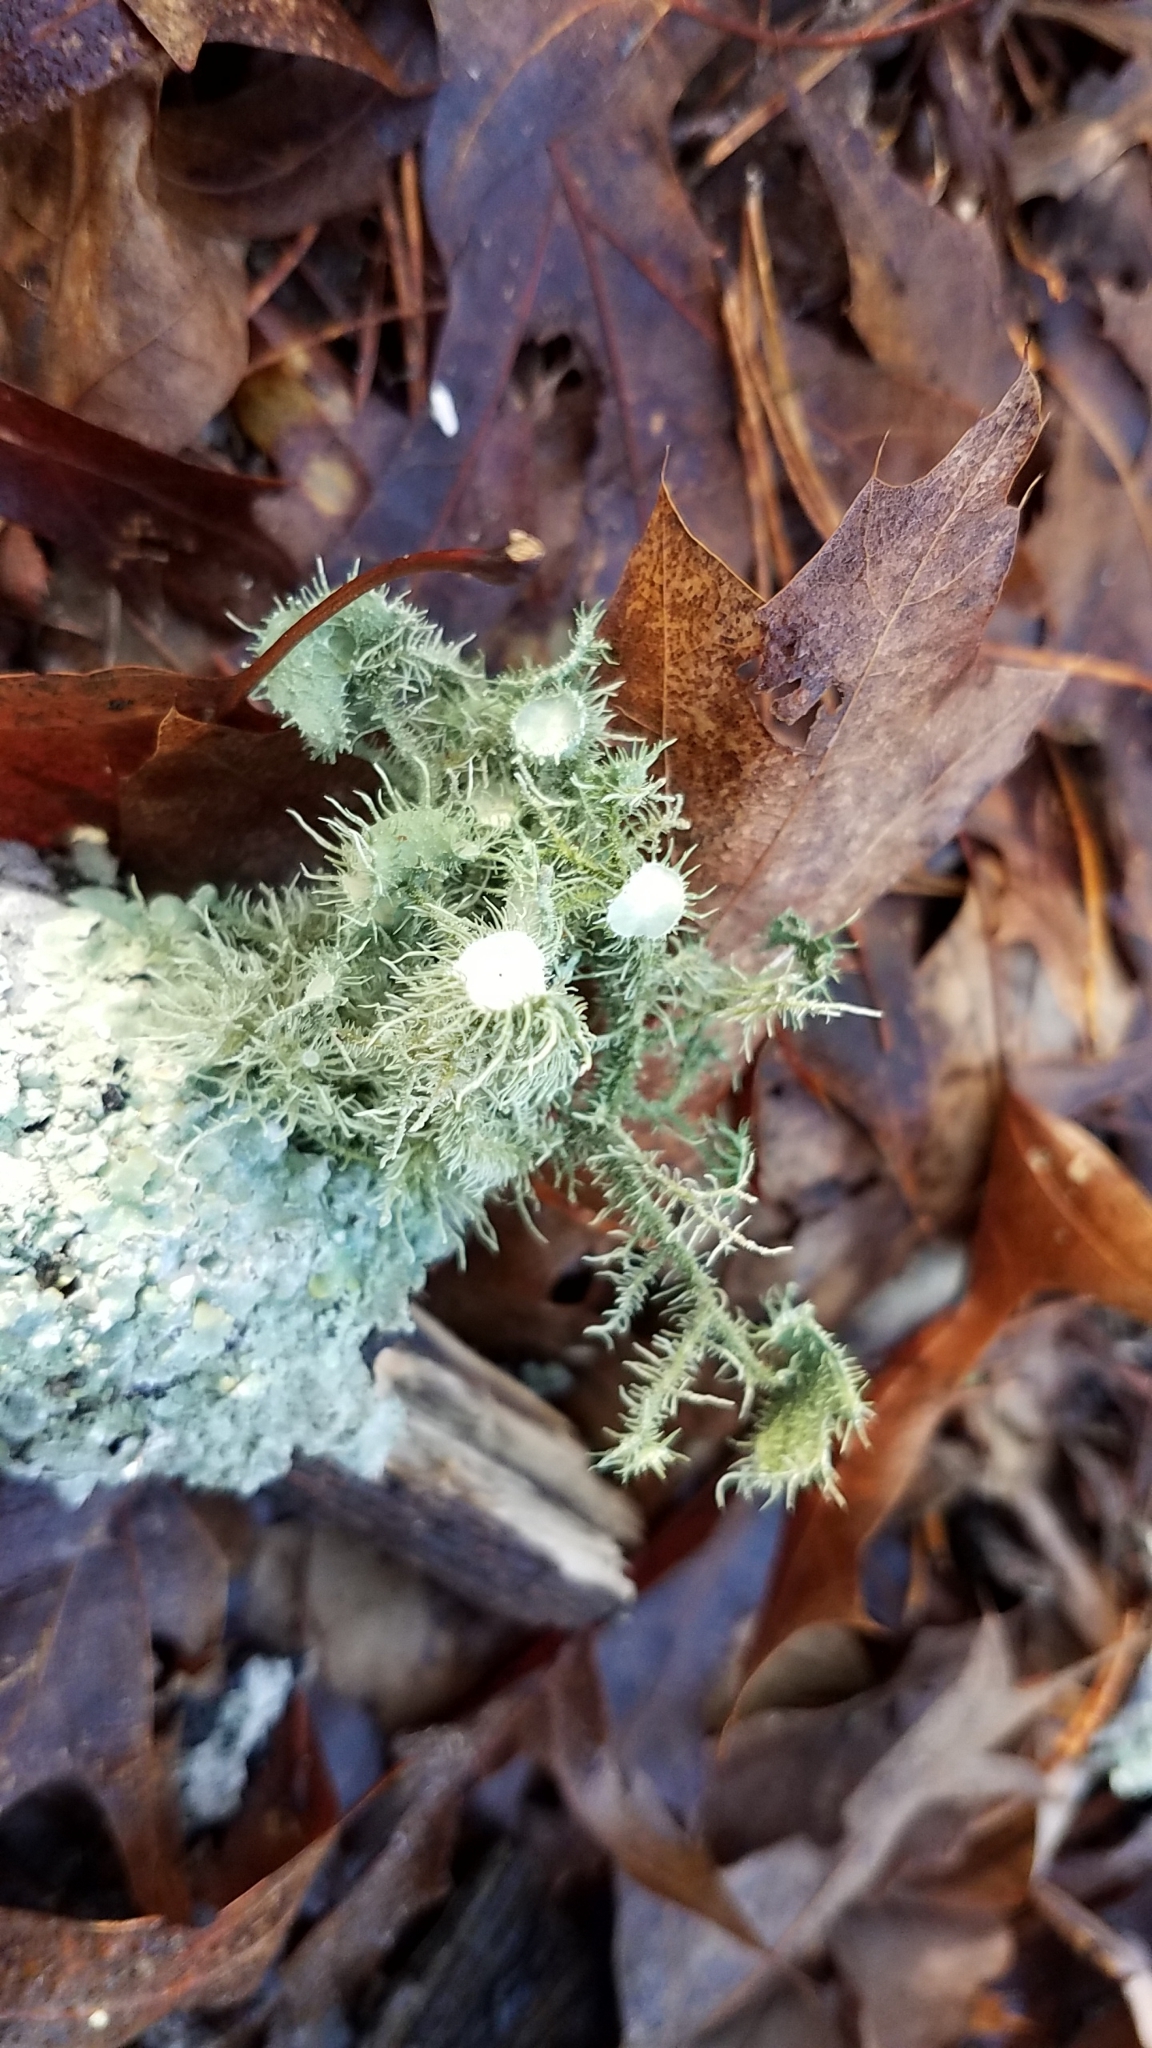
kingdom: Fungi
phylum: Ascomycota
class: Lecanoromycetes
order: Lecanorales
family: Parmeliaceae
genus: Usnea
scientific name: Usnea strigosa
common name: Bushy beard lichen
